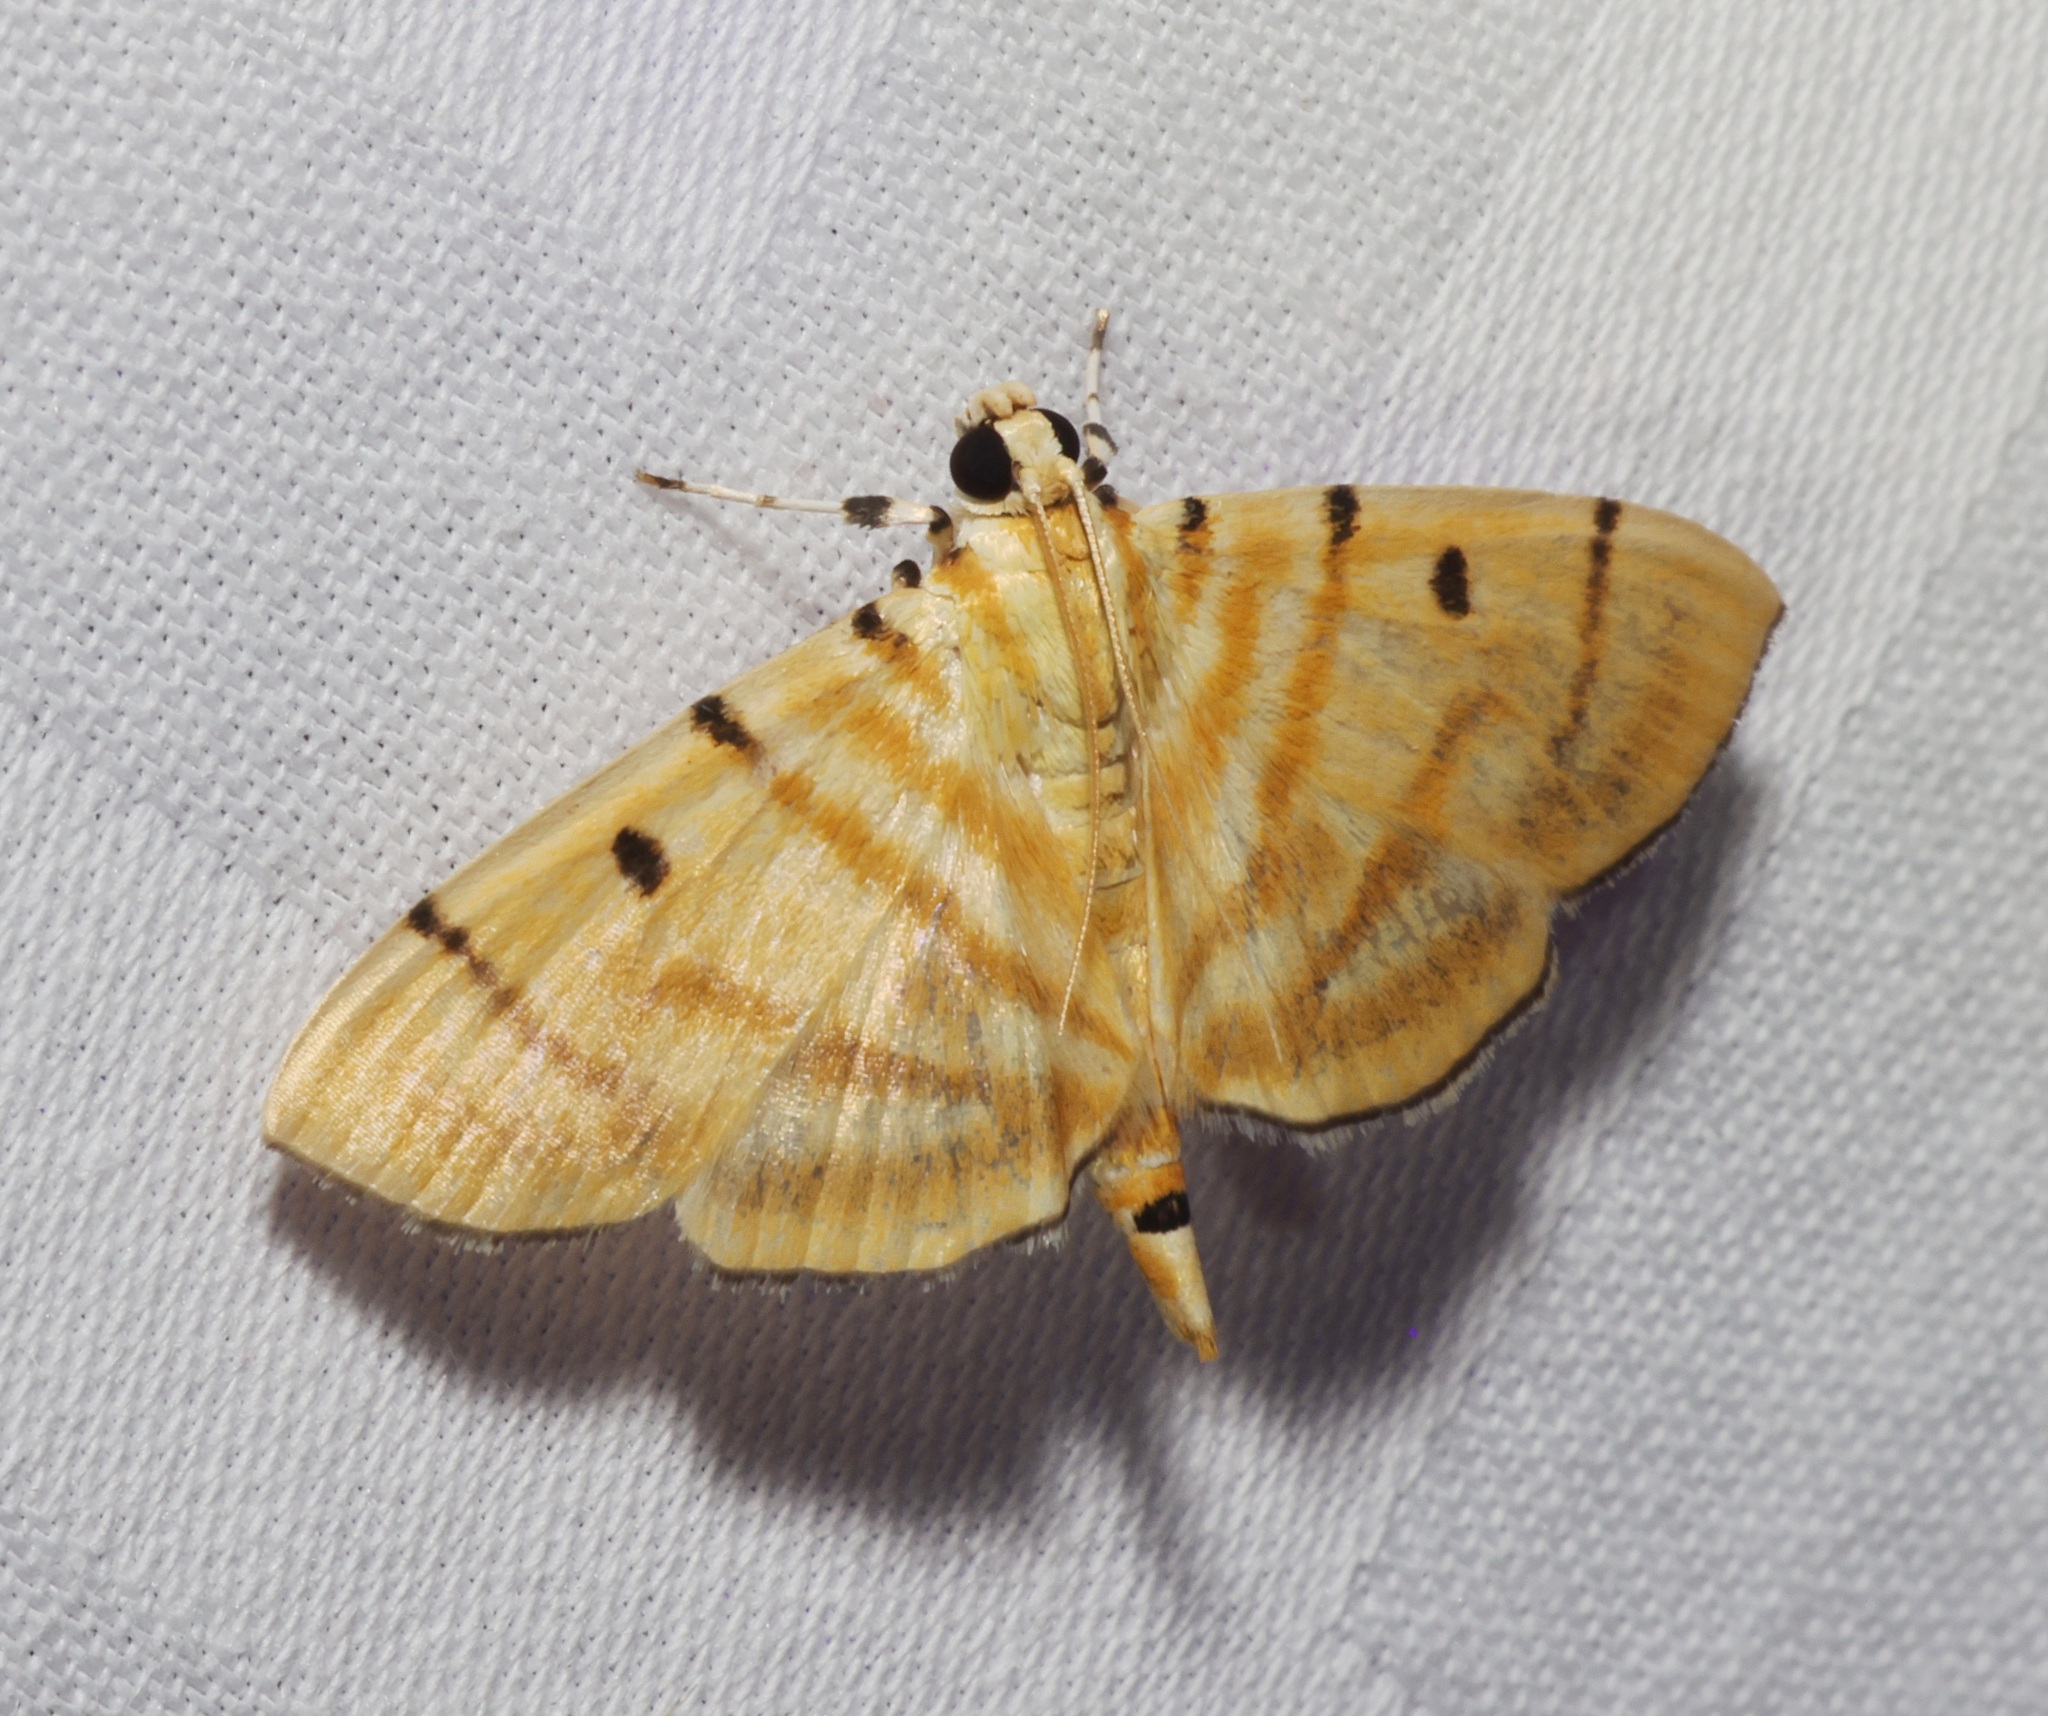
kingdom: Animalia
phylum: Arthropoda
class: Insecta
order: Lepidoptera
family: Crambidae
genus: Orthospila
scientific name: Orthospila orissusalis
